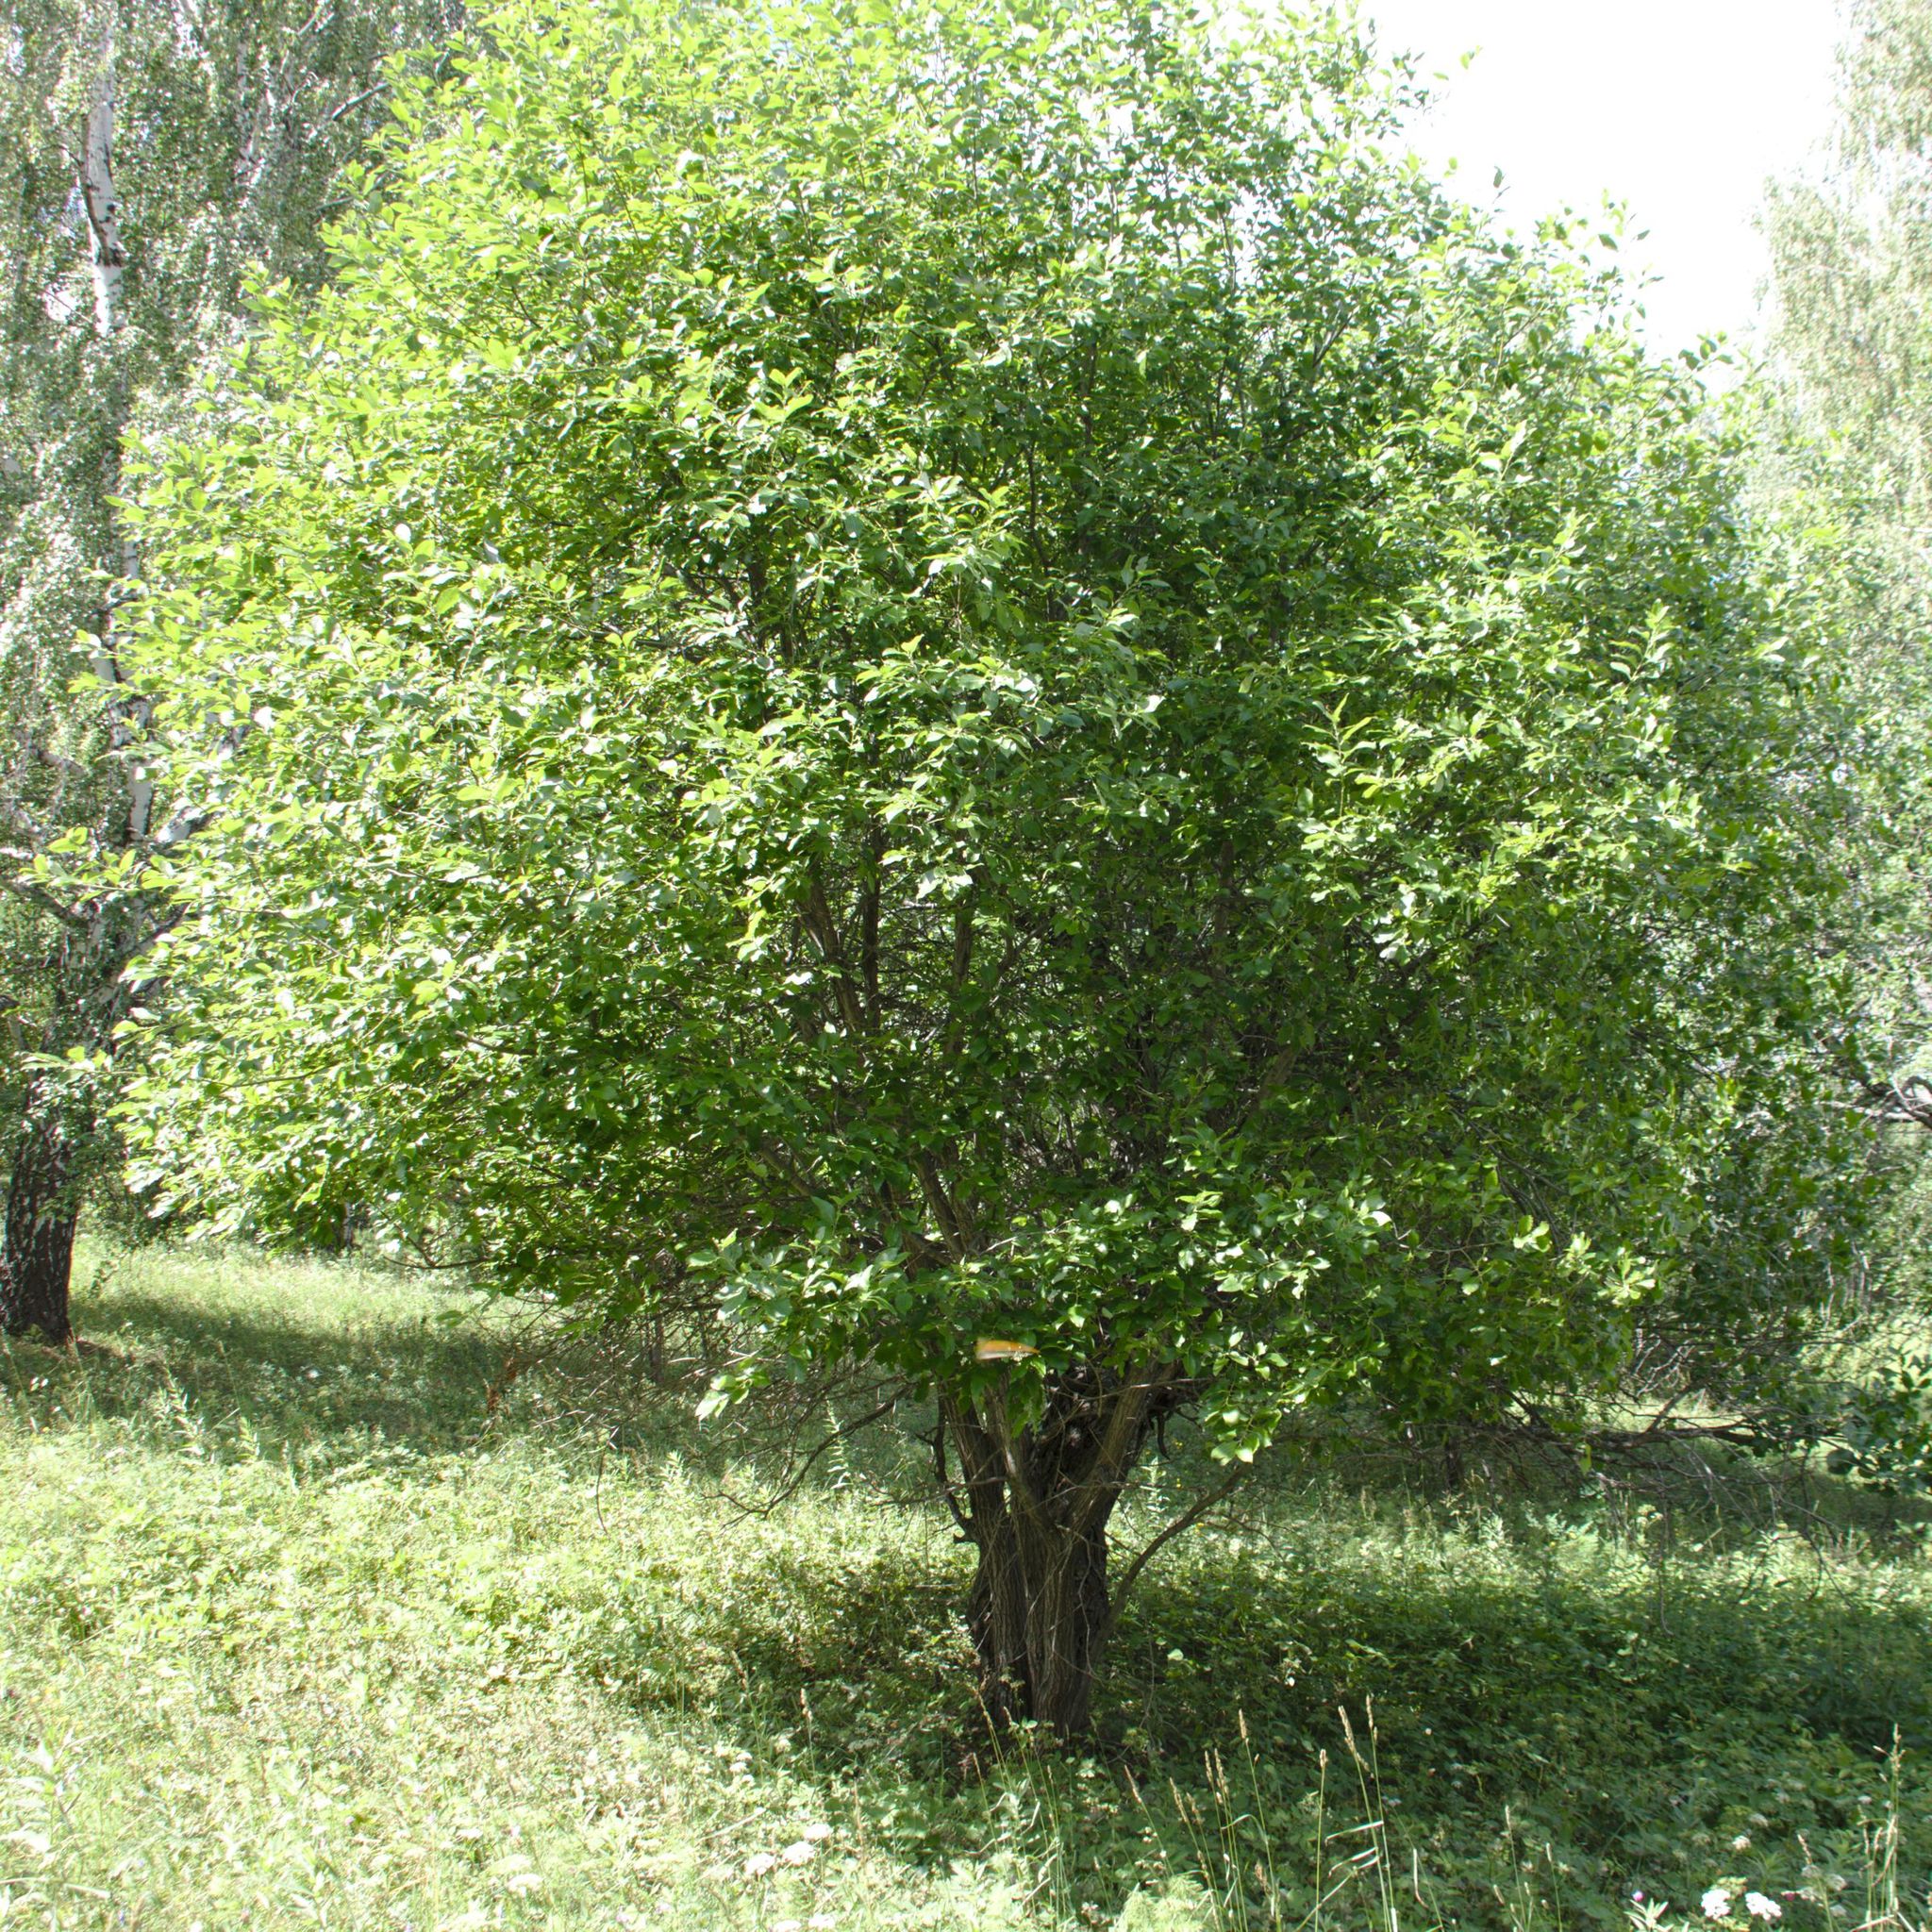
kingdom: Plantae
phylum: Tracheophyta
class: Magnoliopsida
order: Malpighiales
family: Salicaceae
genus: Salix
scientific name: Salix caprea
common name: Goat willow
